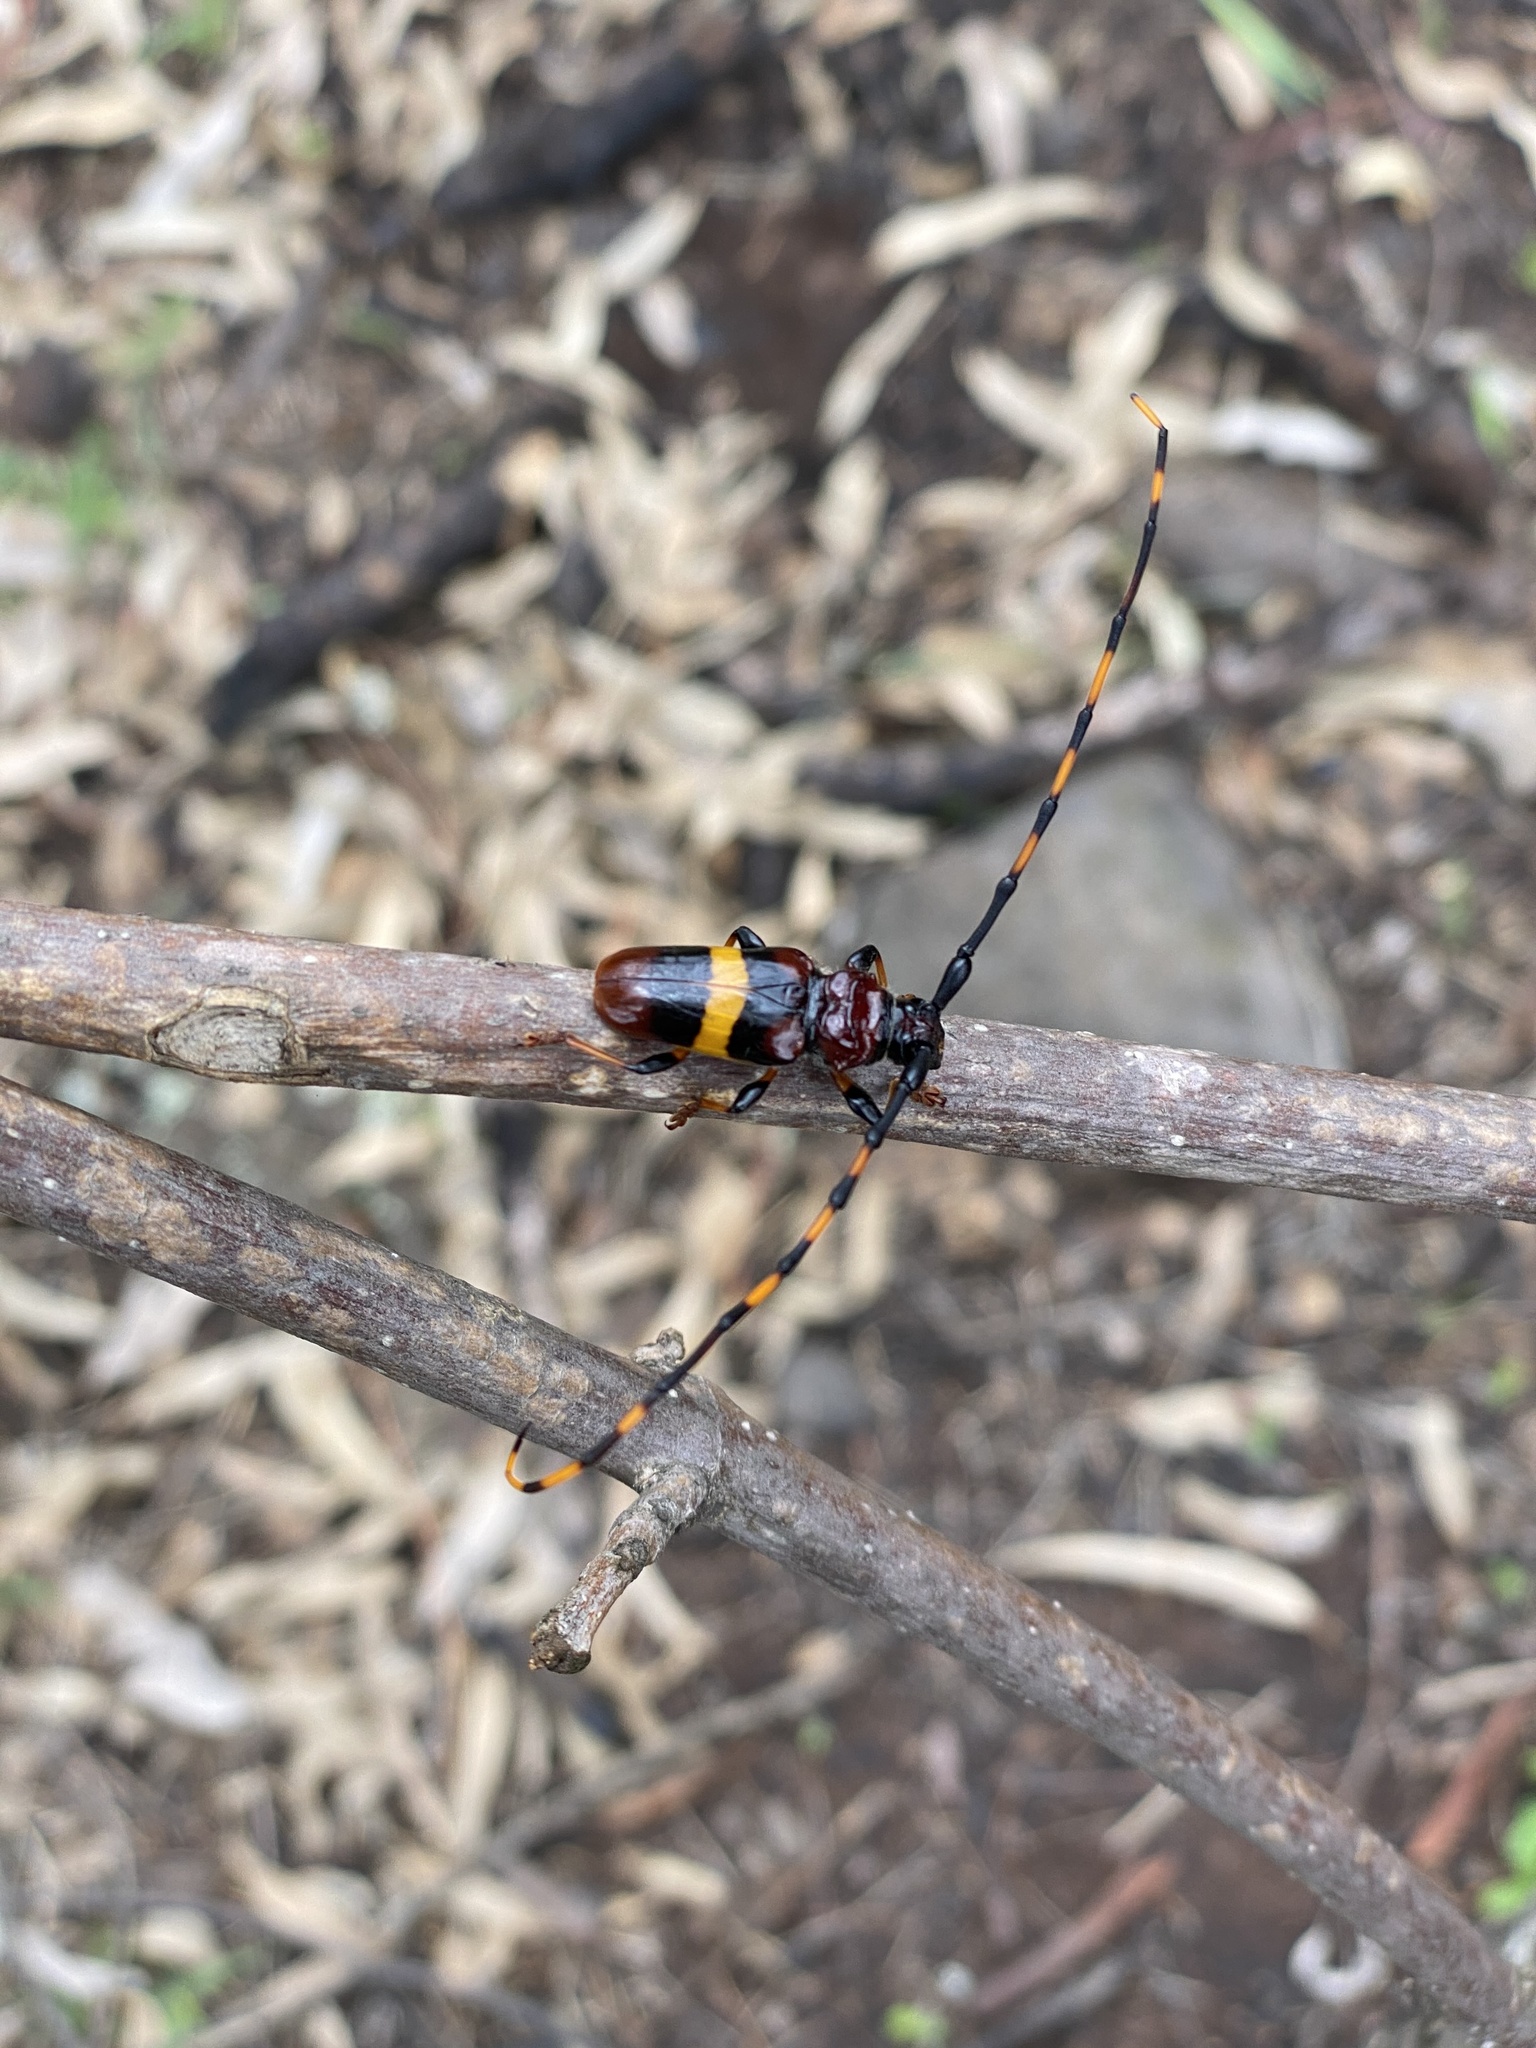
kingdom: Animalia
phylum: Arthropoda
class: Insecta
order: Coleoptera
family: Cerambycidae
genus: Trachyderes
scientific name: Trachyderes elegans
